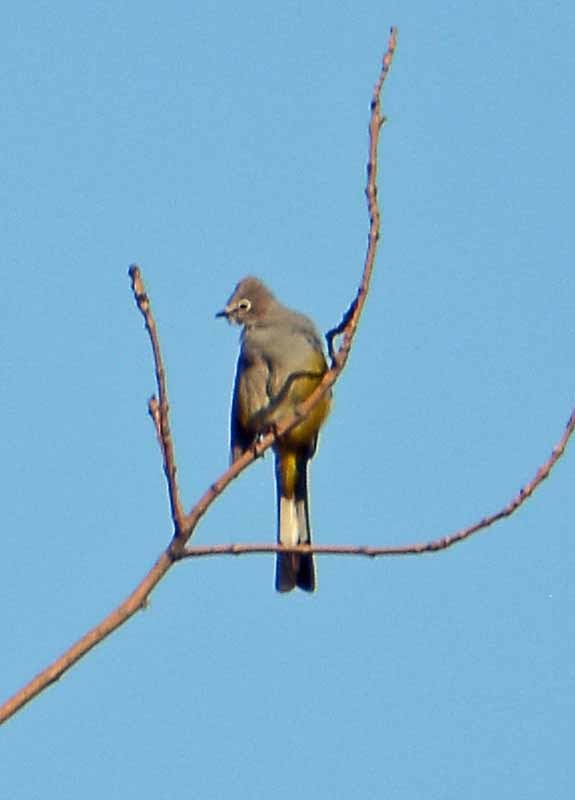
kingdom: Animalia
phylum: Chordata
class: Aves
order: Passeriformes
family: Ptilogonatidae
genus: Ptilogonys
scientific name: Ptilogonys cinereus
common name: Gray silky-flycatcher
